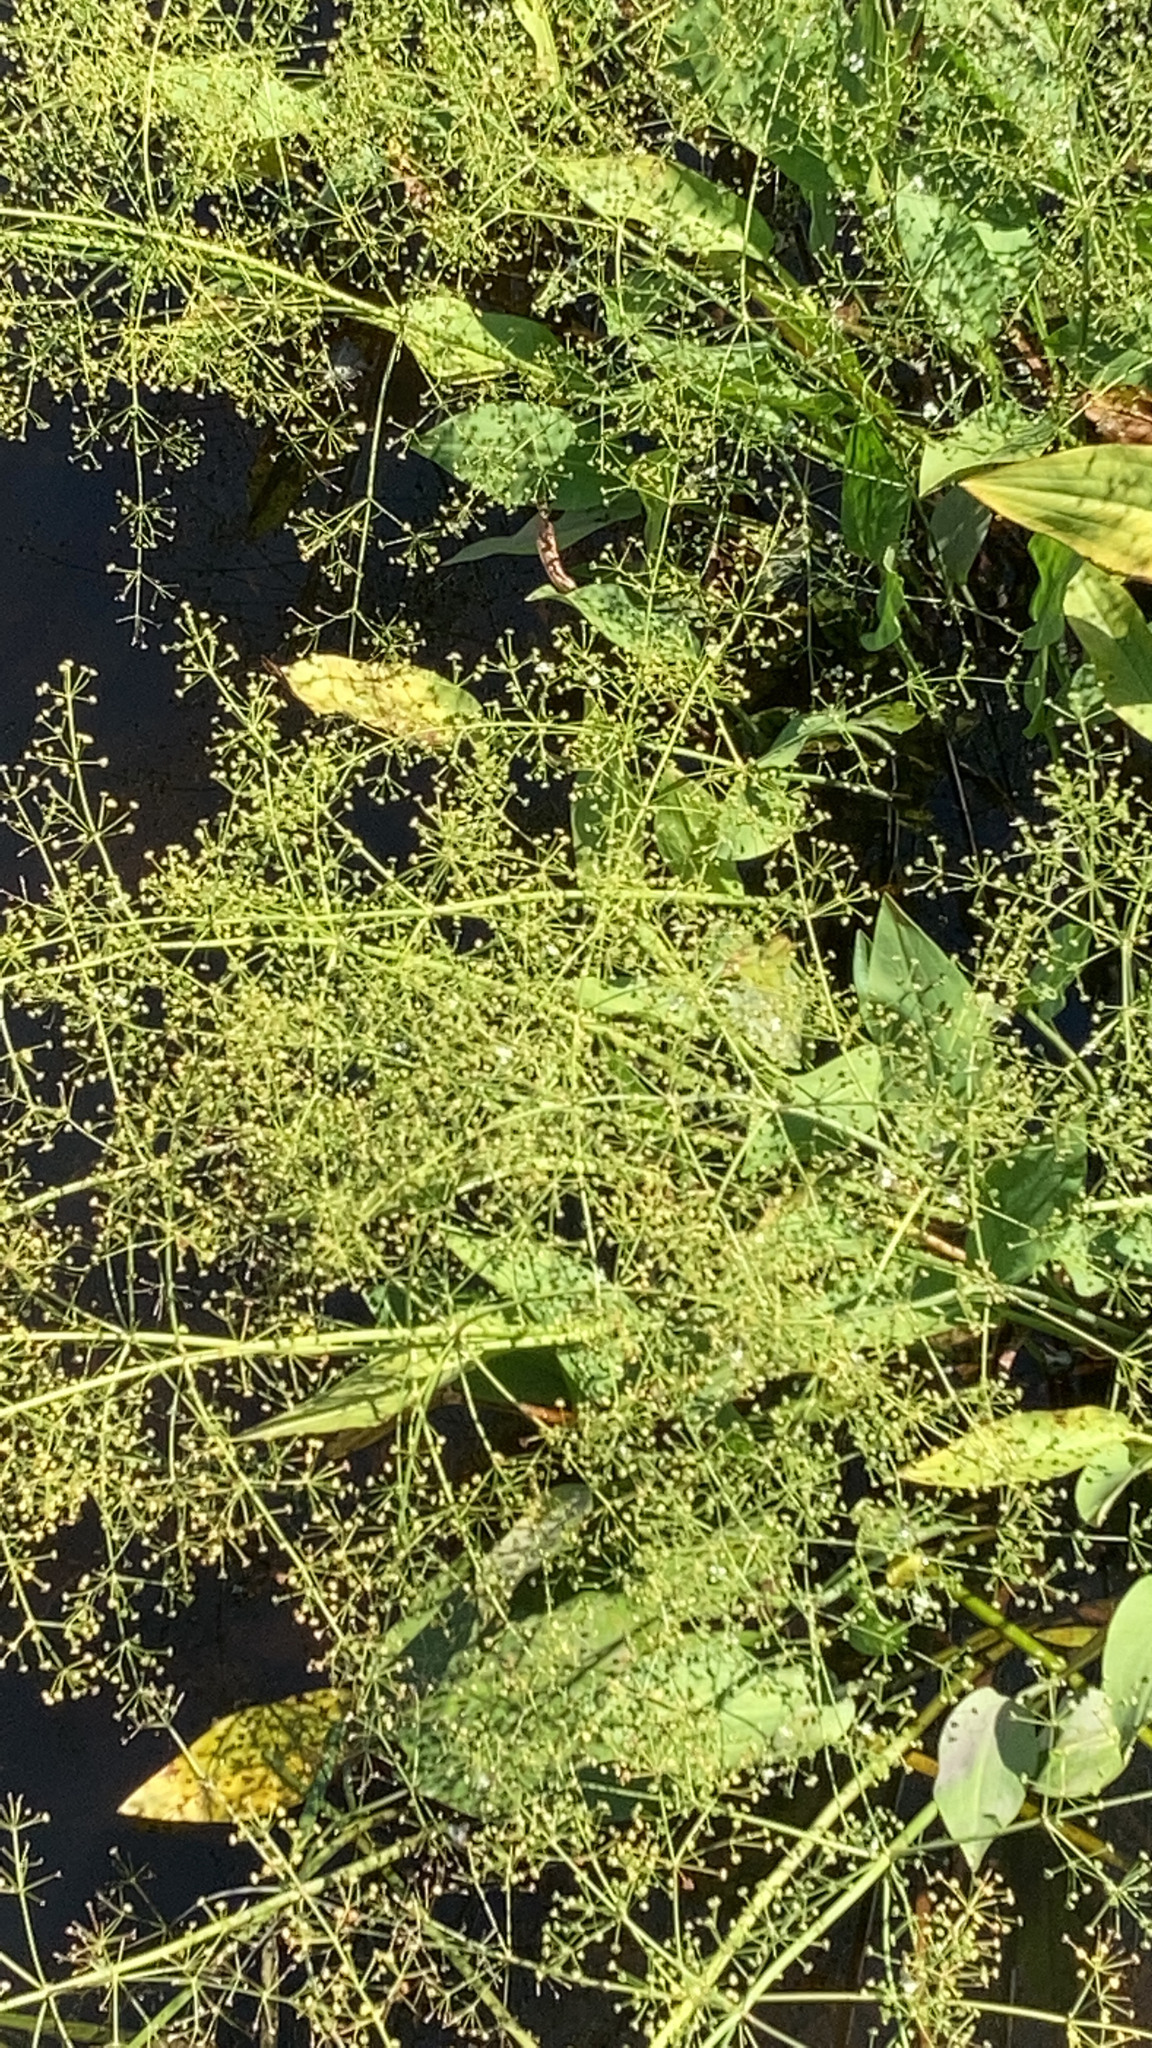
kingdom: Plantae
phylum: Tracheophyta
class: Liliopsida
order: Alismatales
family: Alismataceae
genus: Alisma
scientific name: Alisma plantago-aquatica
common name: Water-plantain
